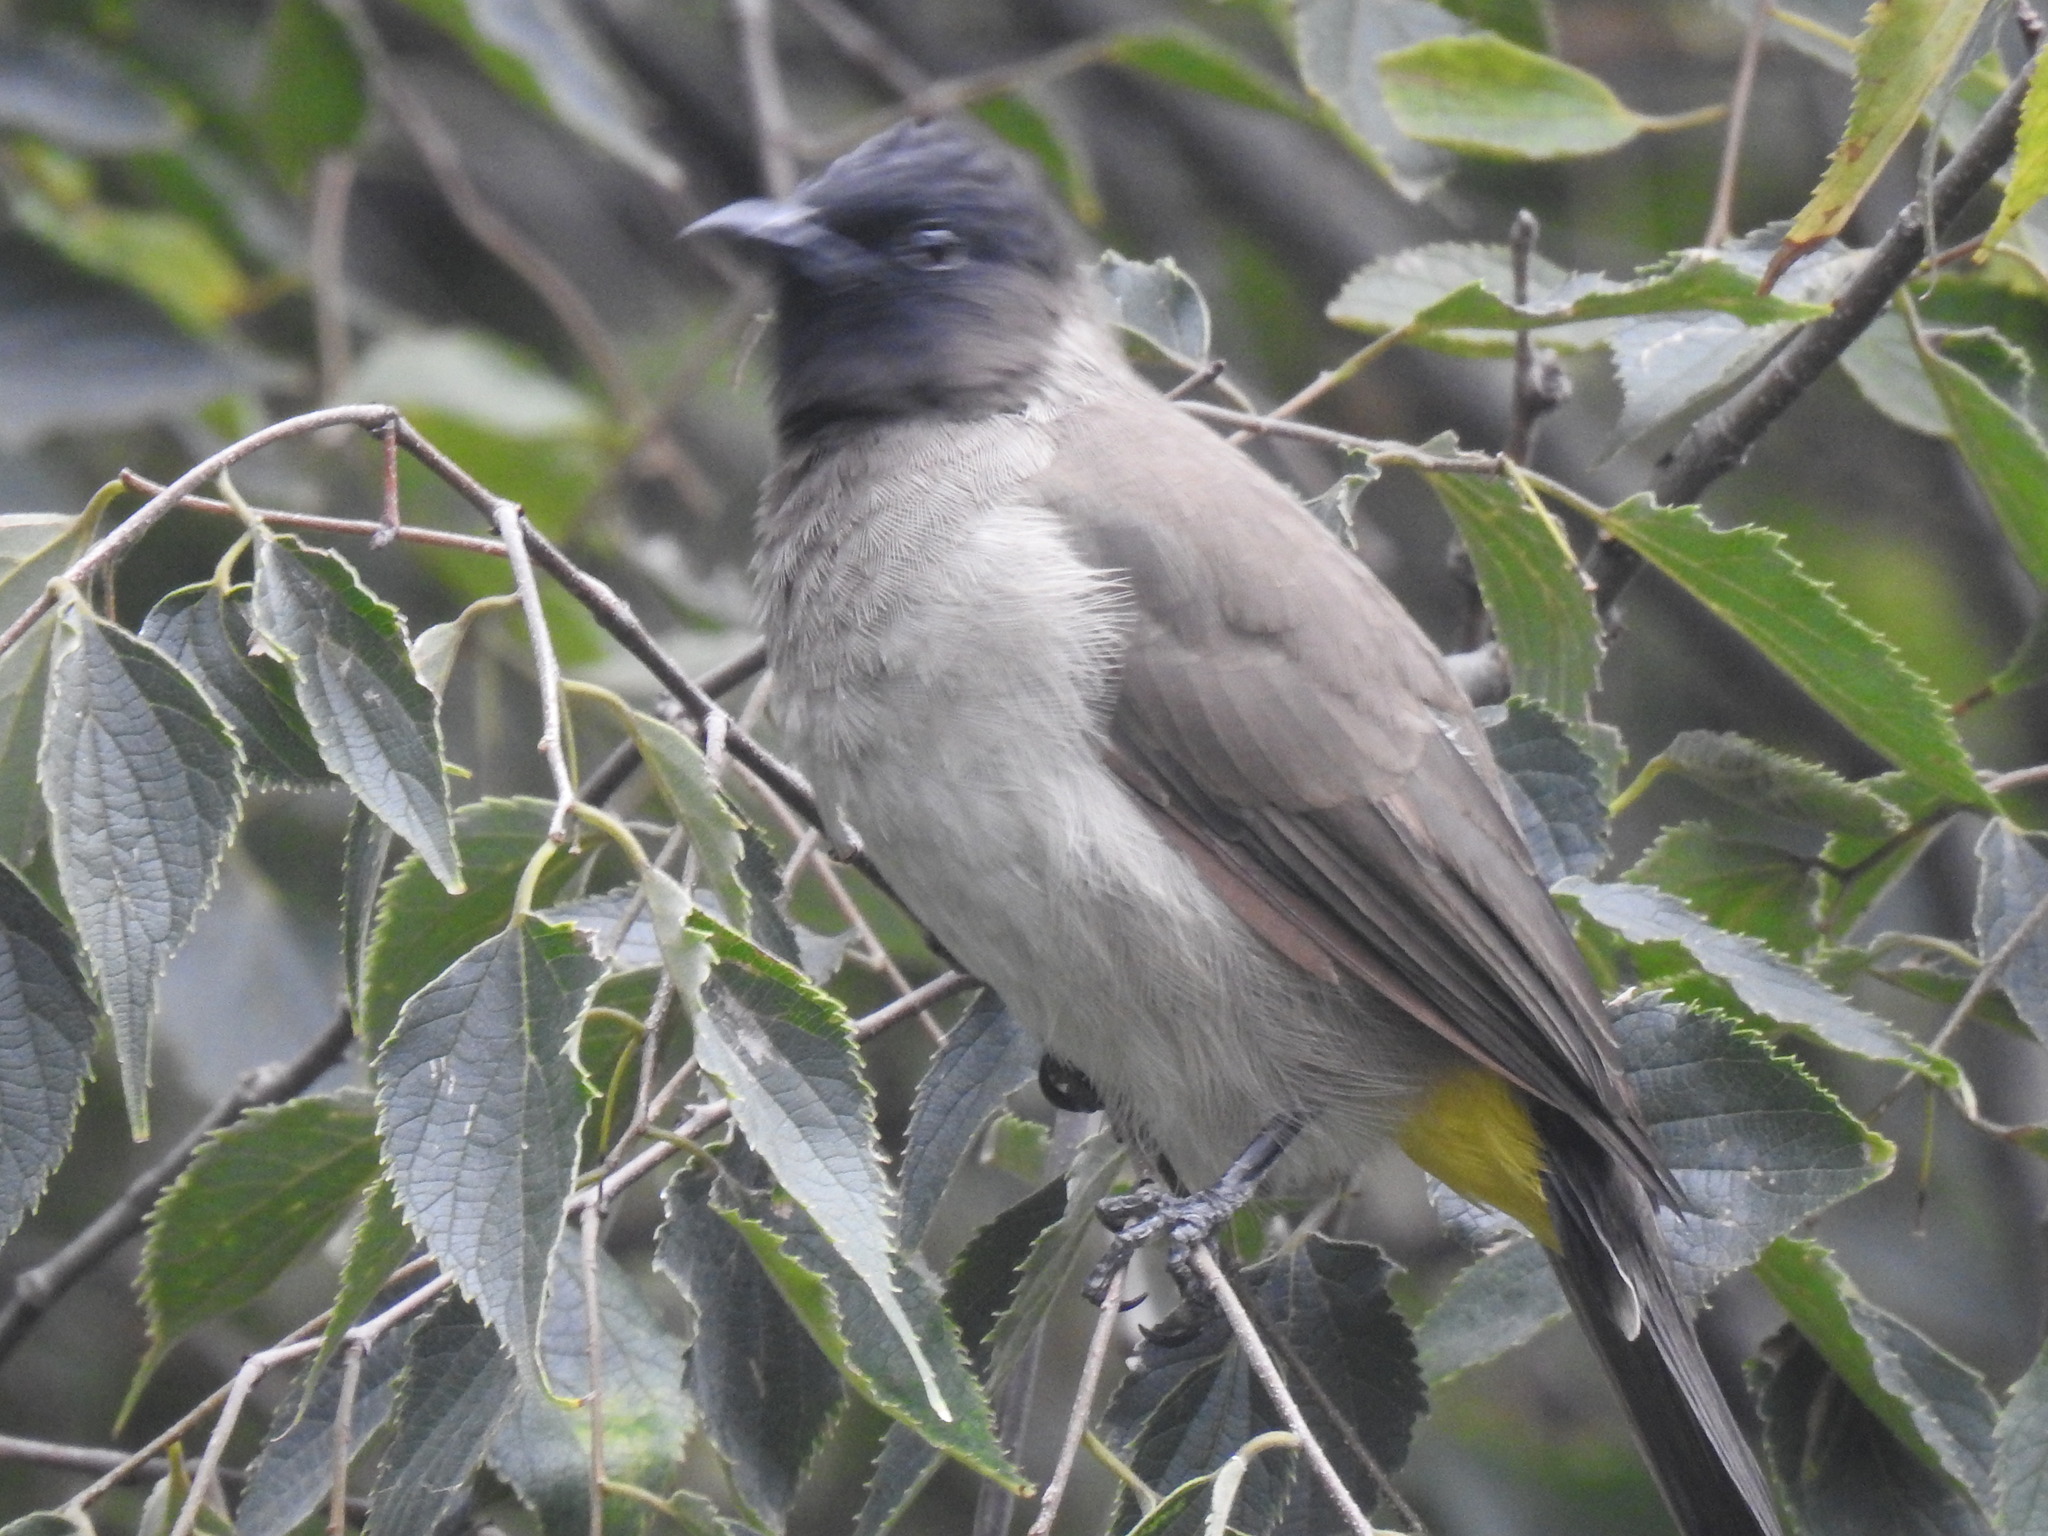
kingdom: Animalia
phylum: Chordata
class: Aves
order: Passeriformes
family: Pycnonotidae
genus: Pycnonotus
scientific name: Pycnonotus barbatus
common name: Common bulbul
